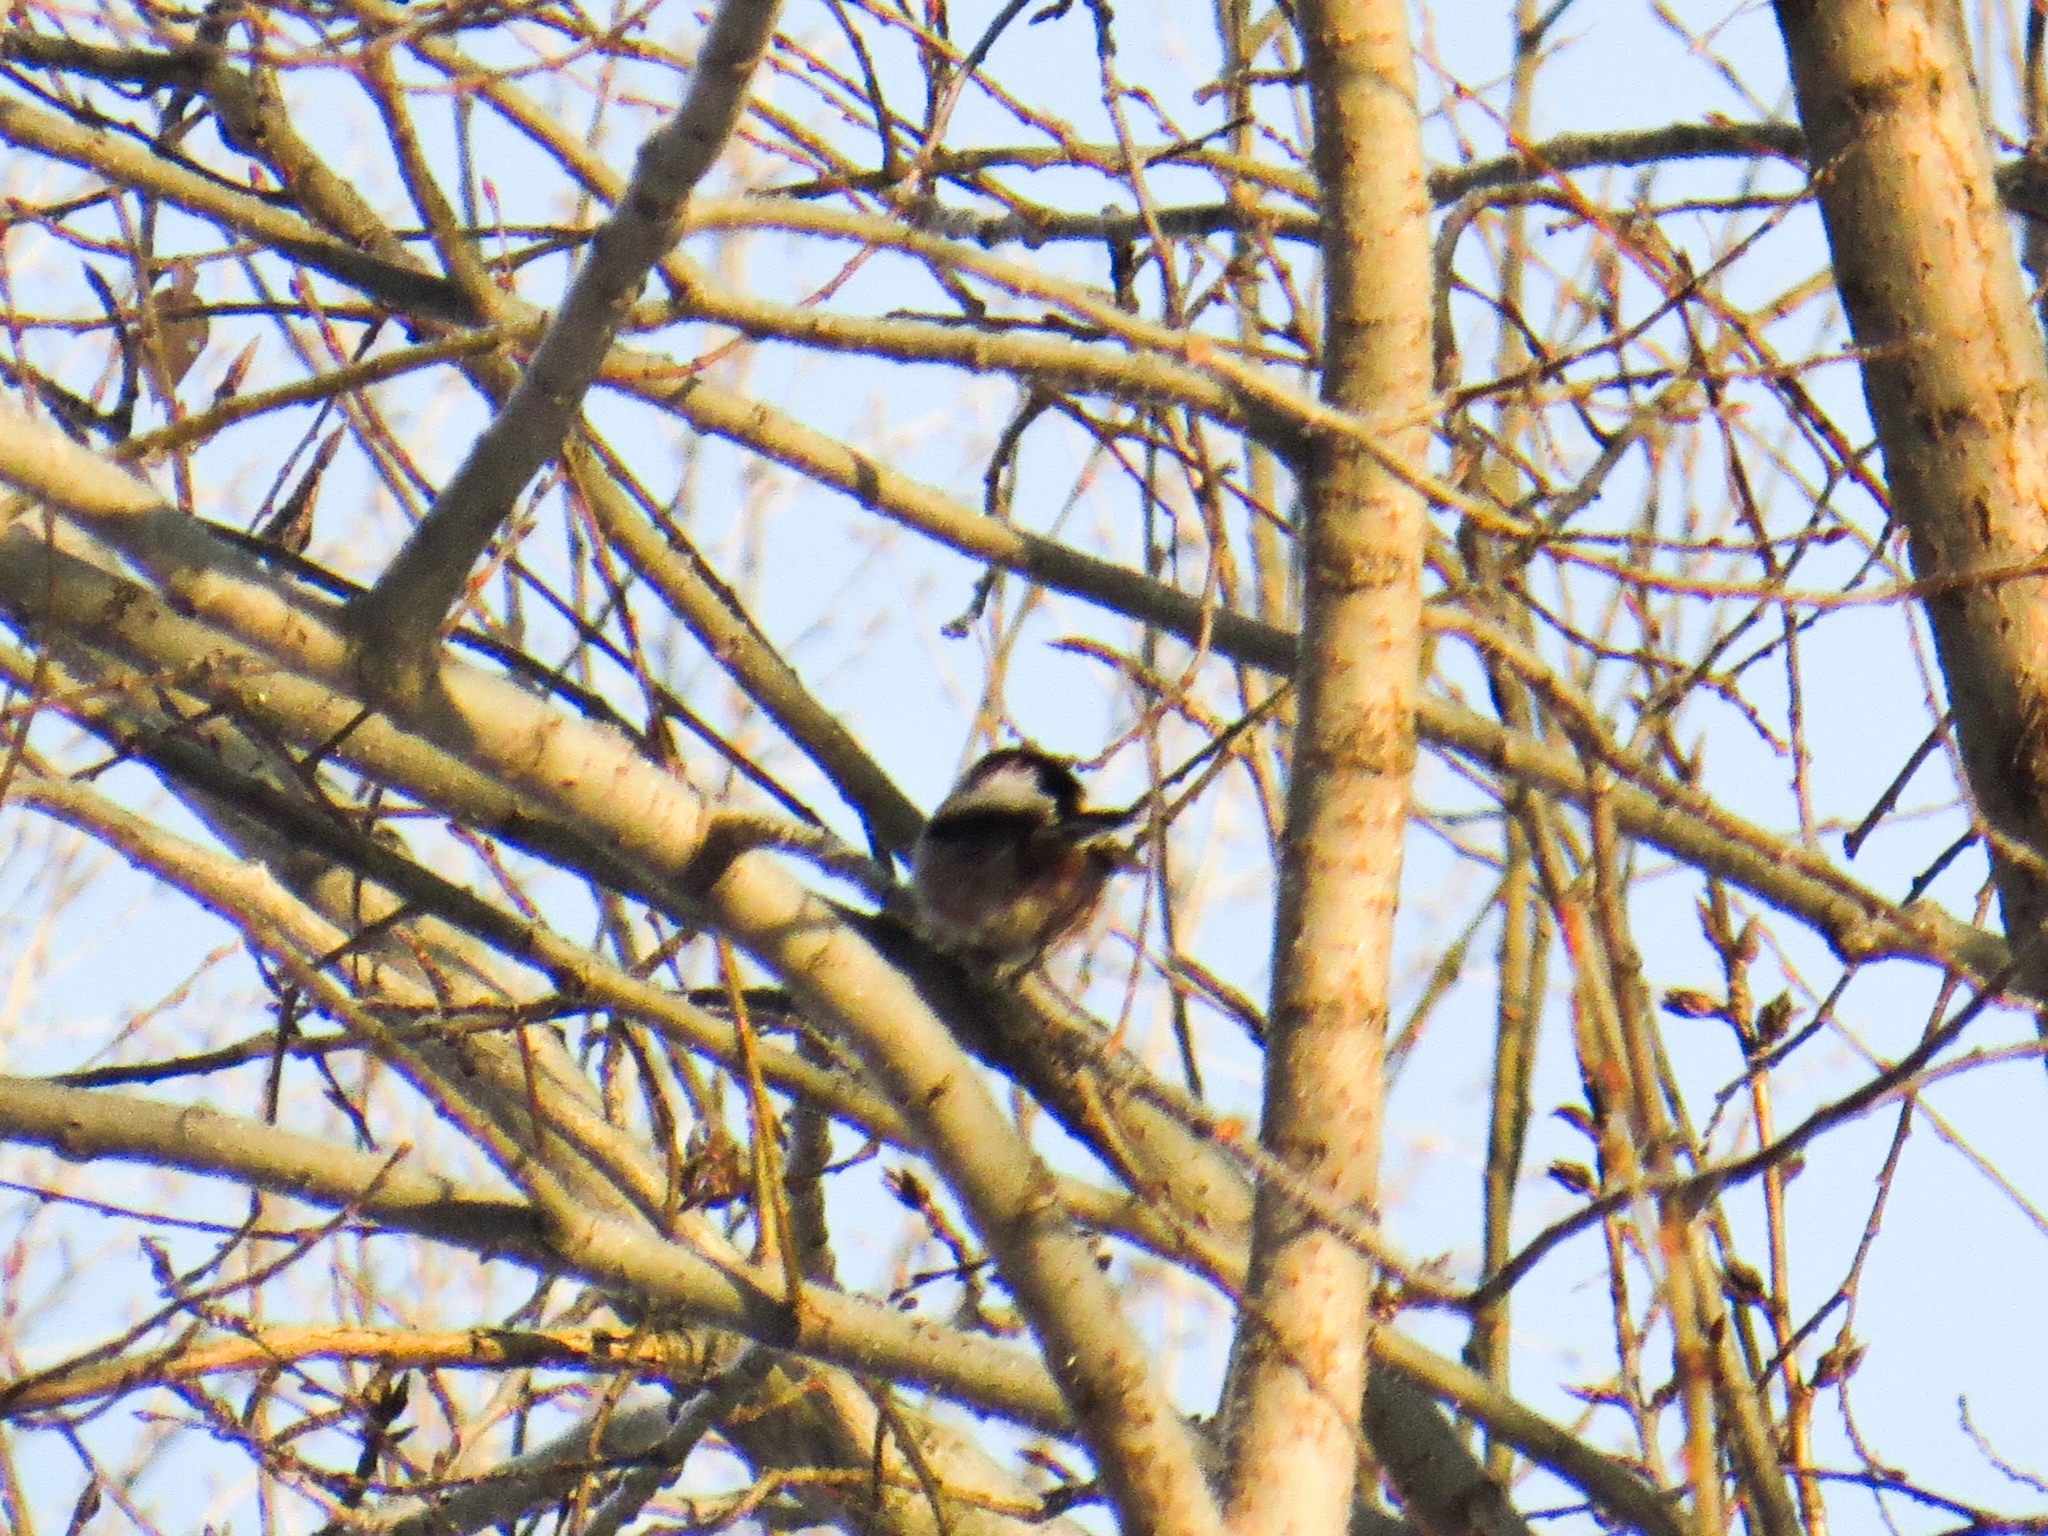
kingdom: Animalia
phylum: Chordata
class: Aves
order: Passeriformes
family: Aegithalidae
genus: Aegithalos
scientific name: Aegithalos caudatus
